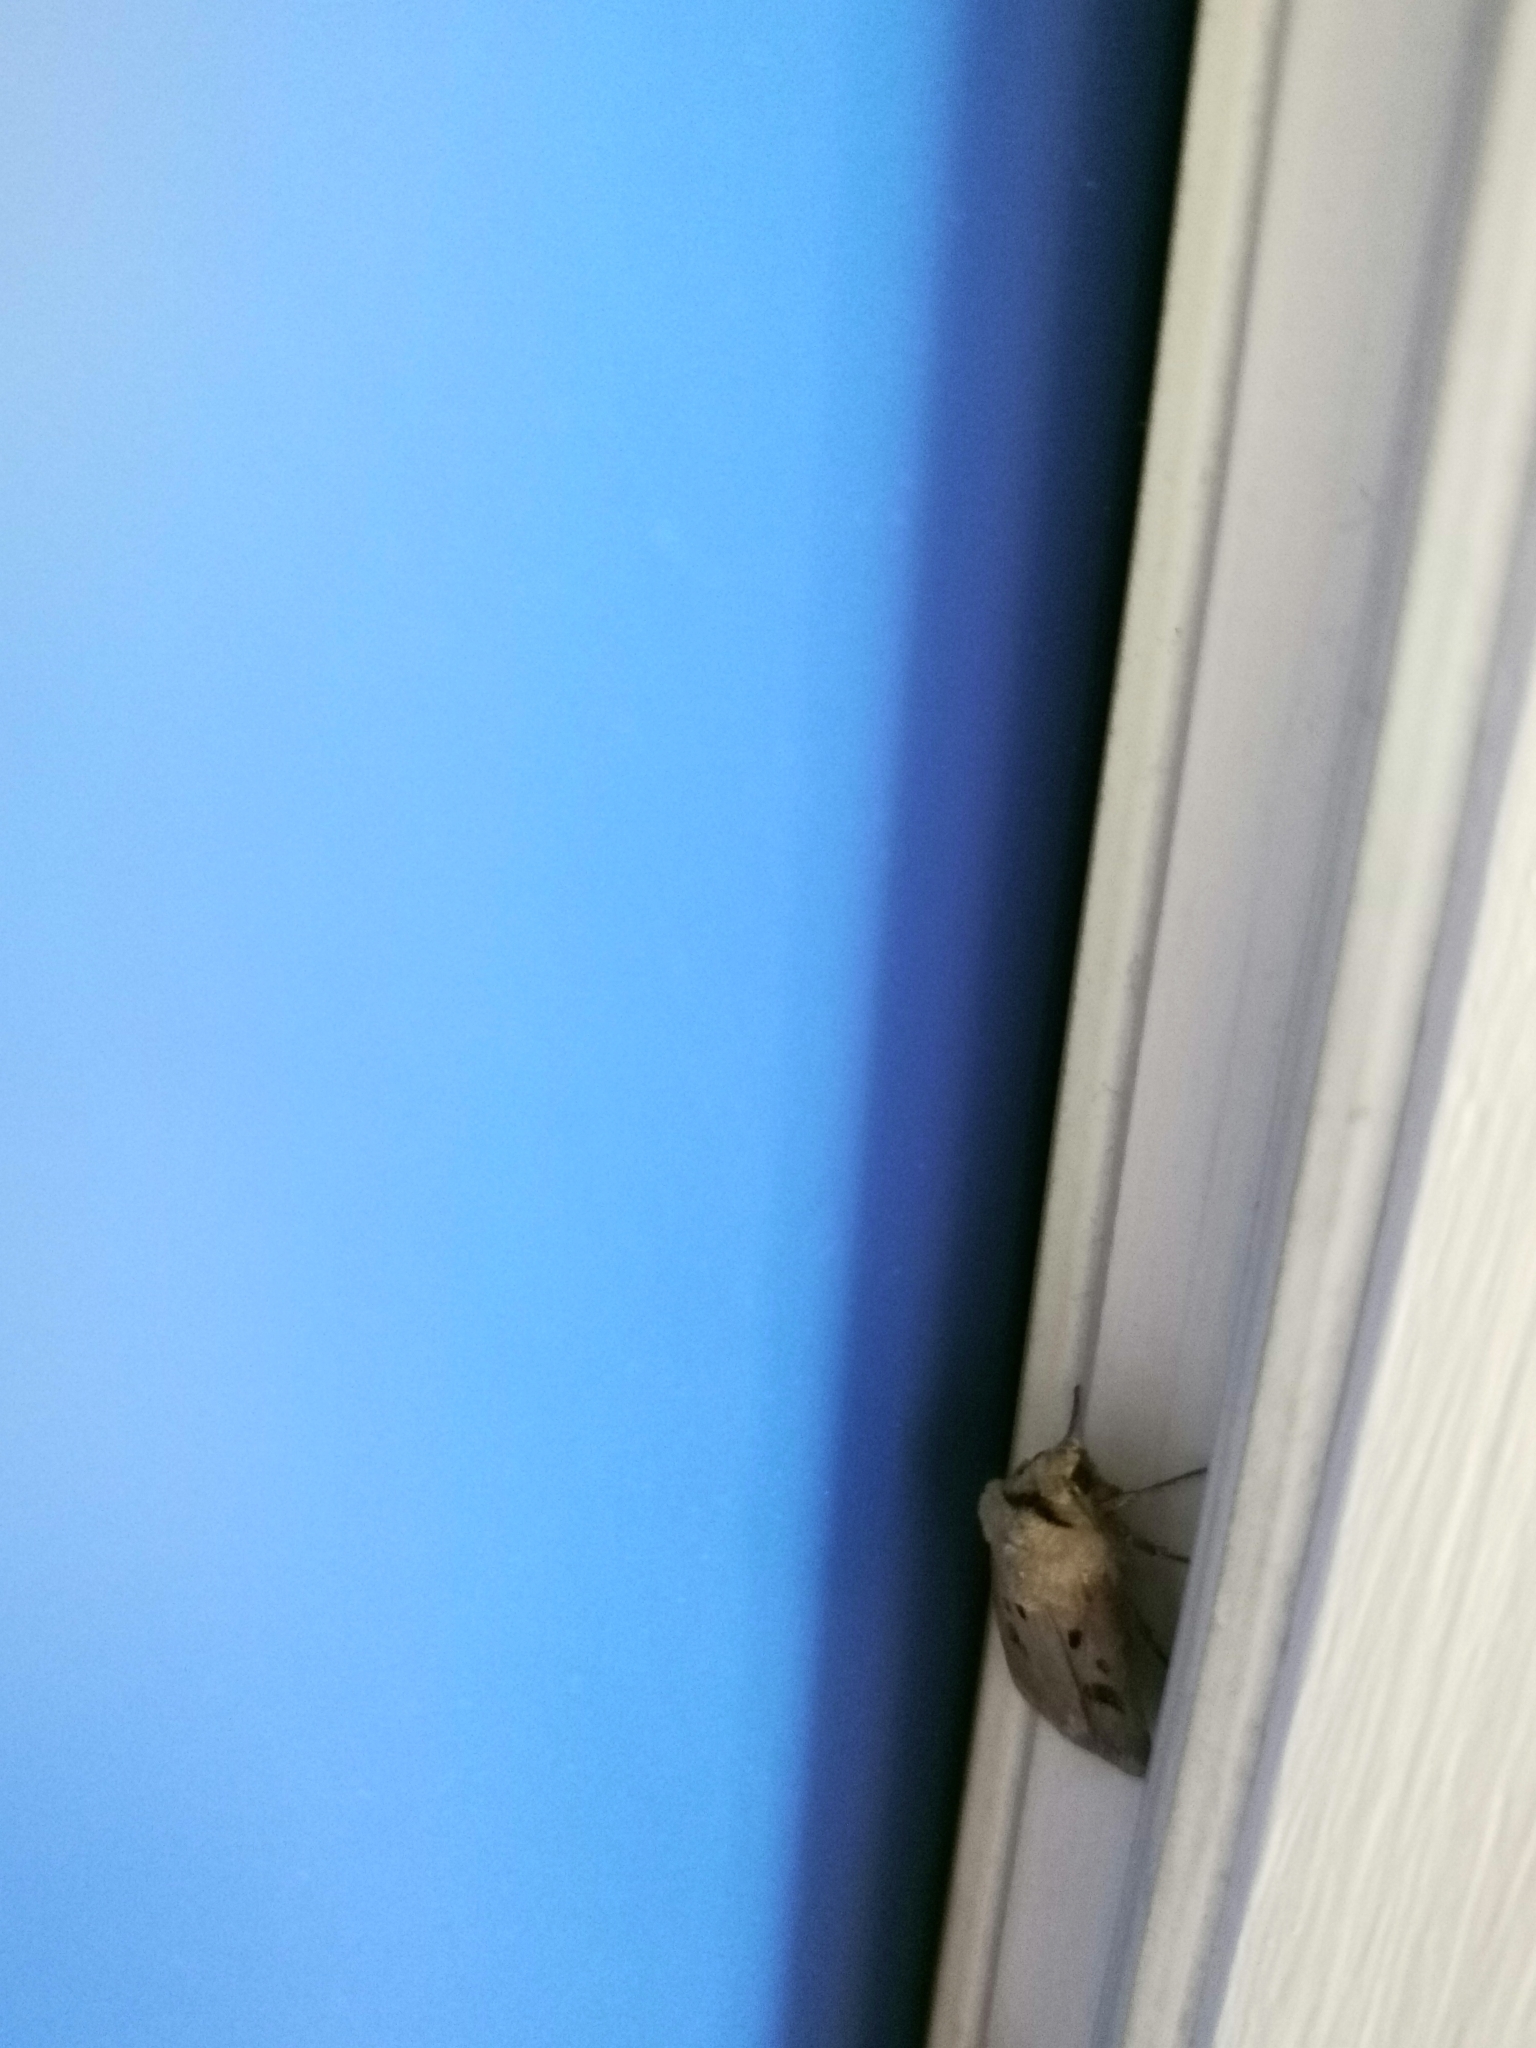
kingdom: Animalia
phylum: Arthropoda
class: Insecta
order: Lepidoptera
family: Noctuidae
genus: Agrotis
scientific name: Agrotis exclamationis
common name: Heart and dart
